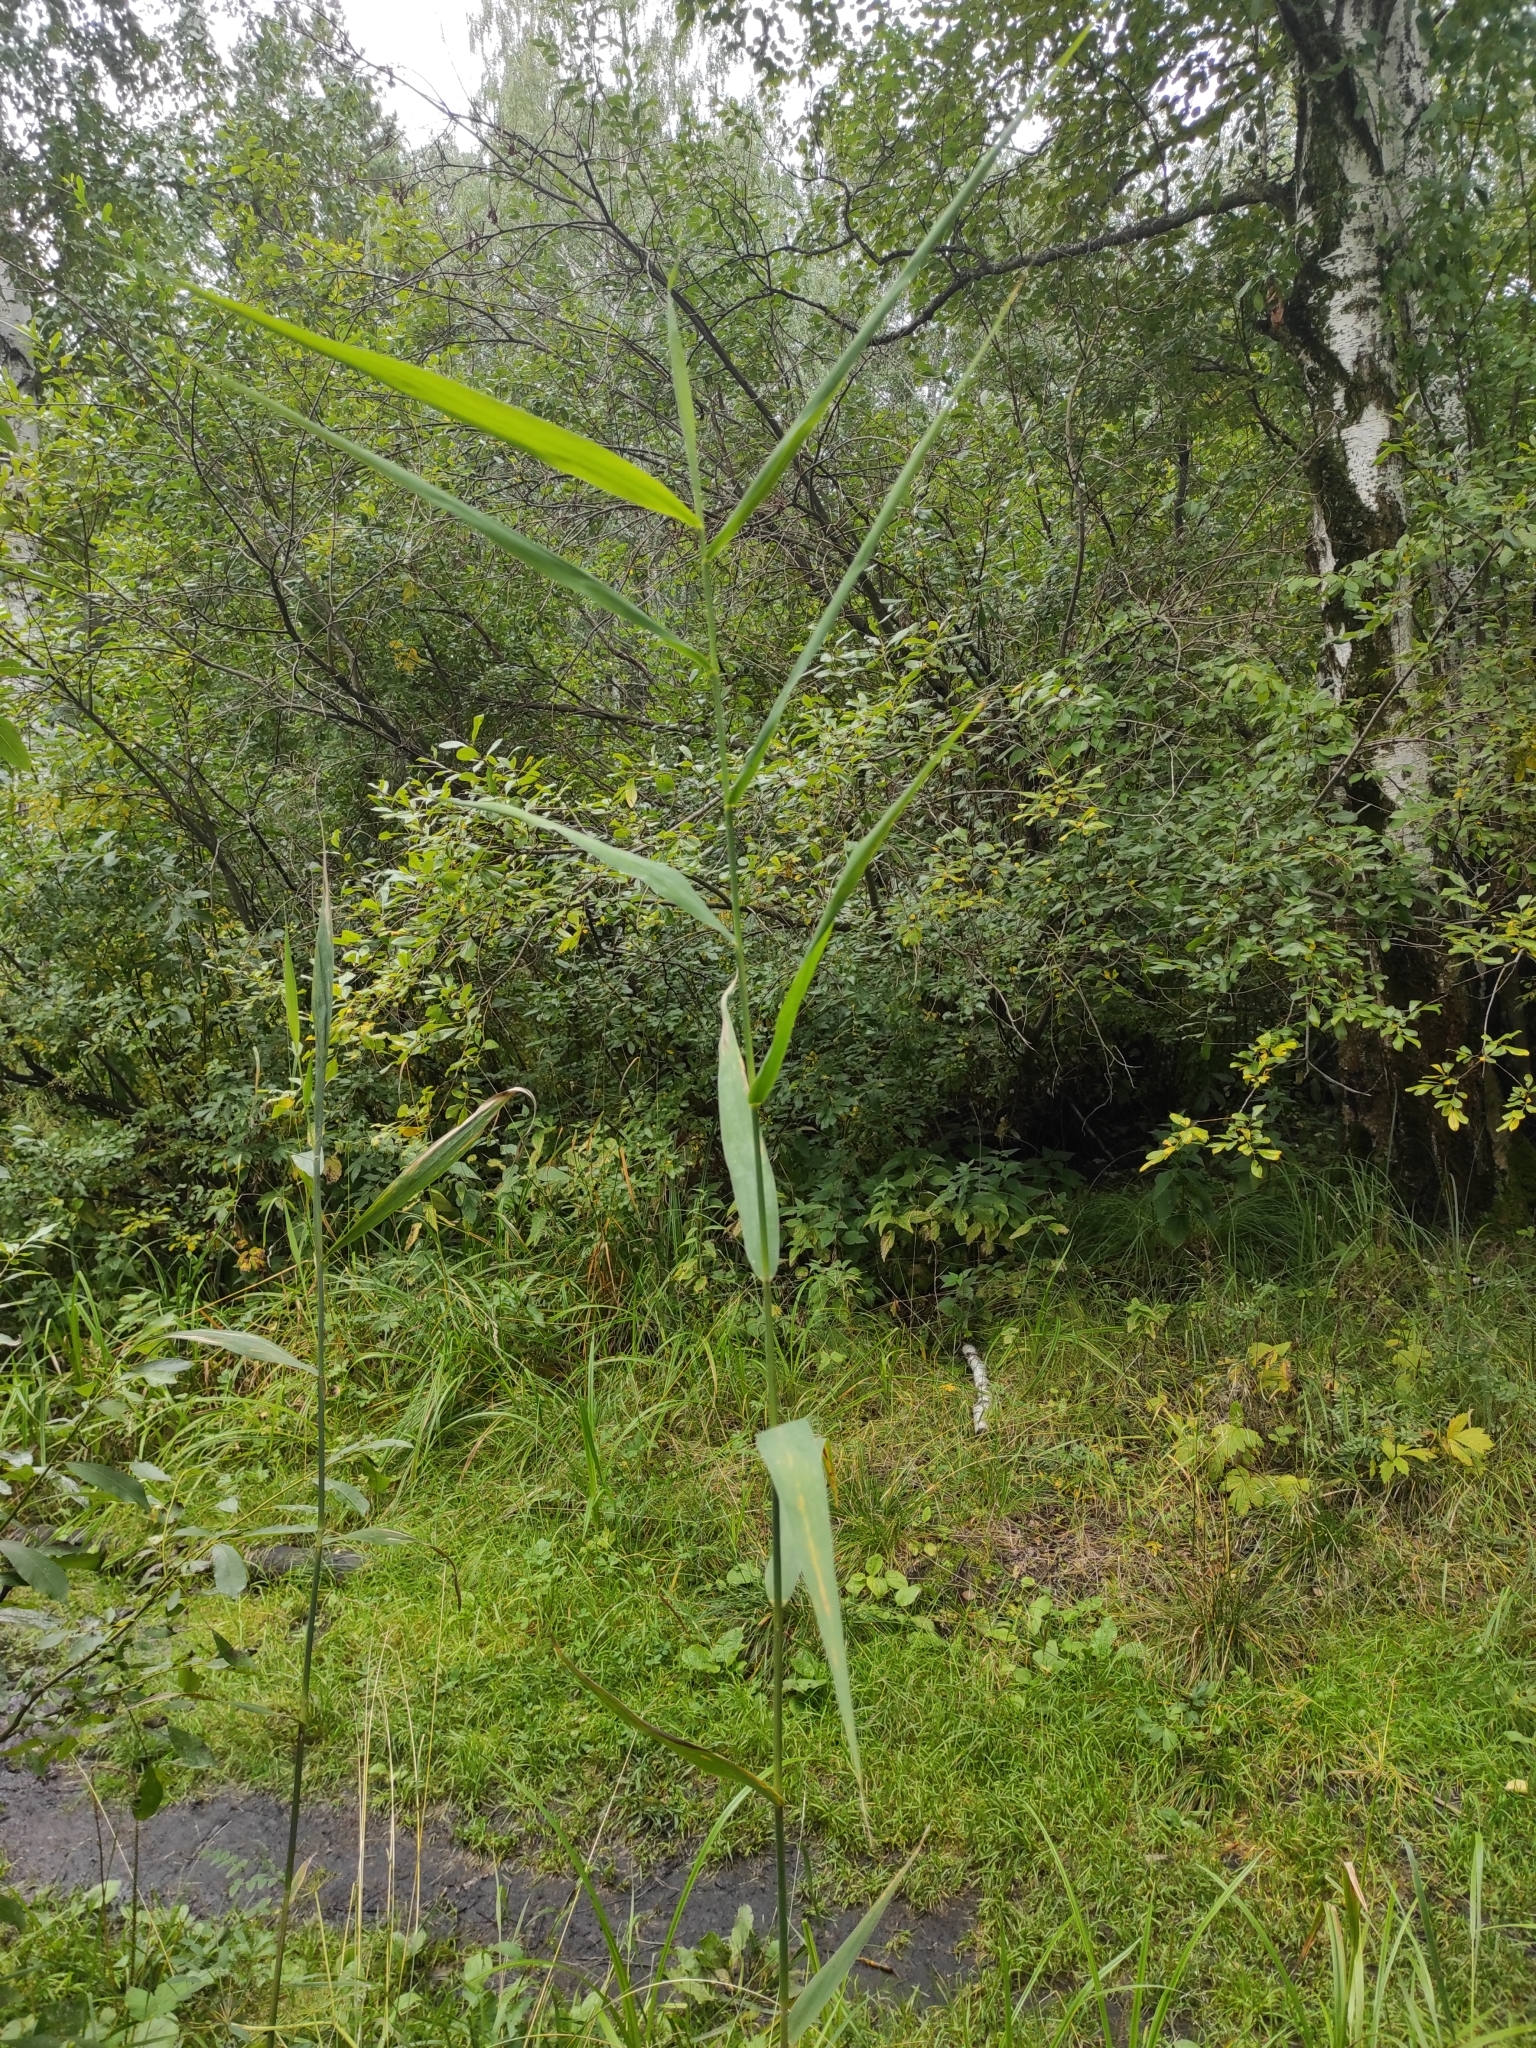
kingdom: Plantae
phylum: Tracheophyta
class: Liliopsida
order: Poales
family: Poaceae
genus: Phragmites
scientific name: Phragmites australis
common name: Common reed
